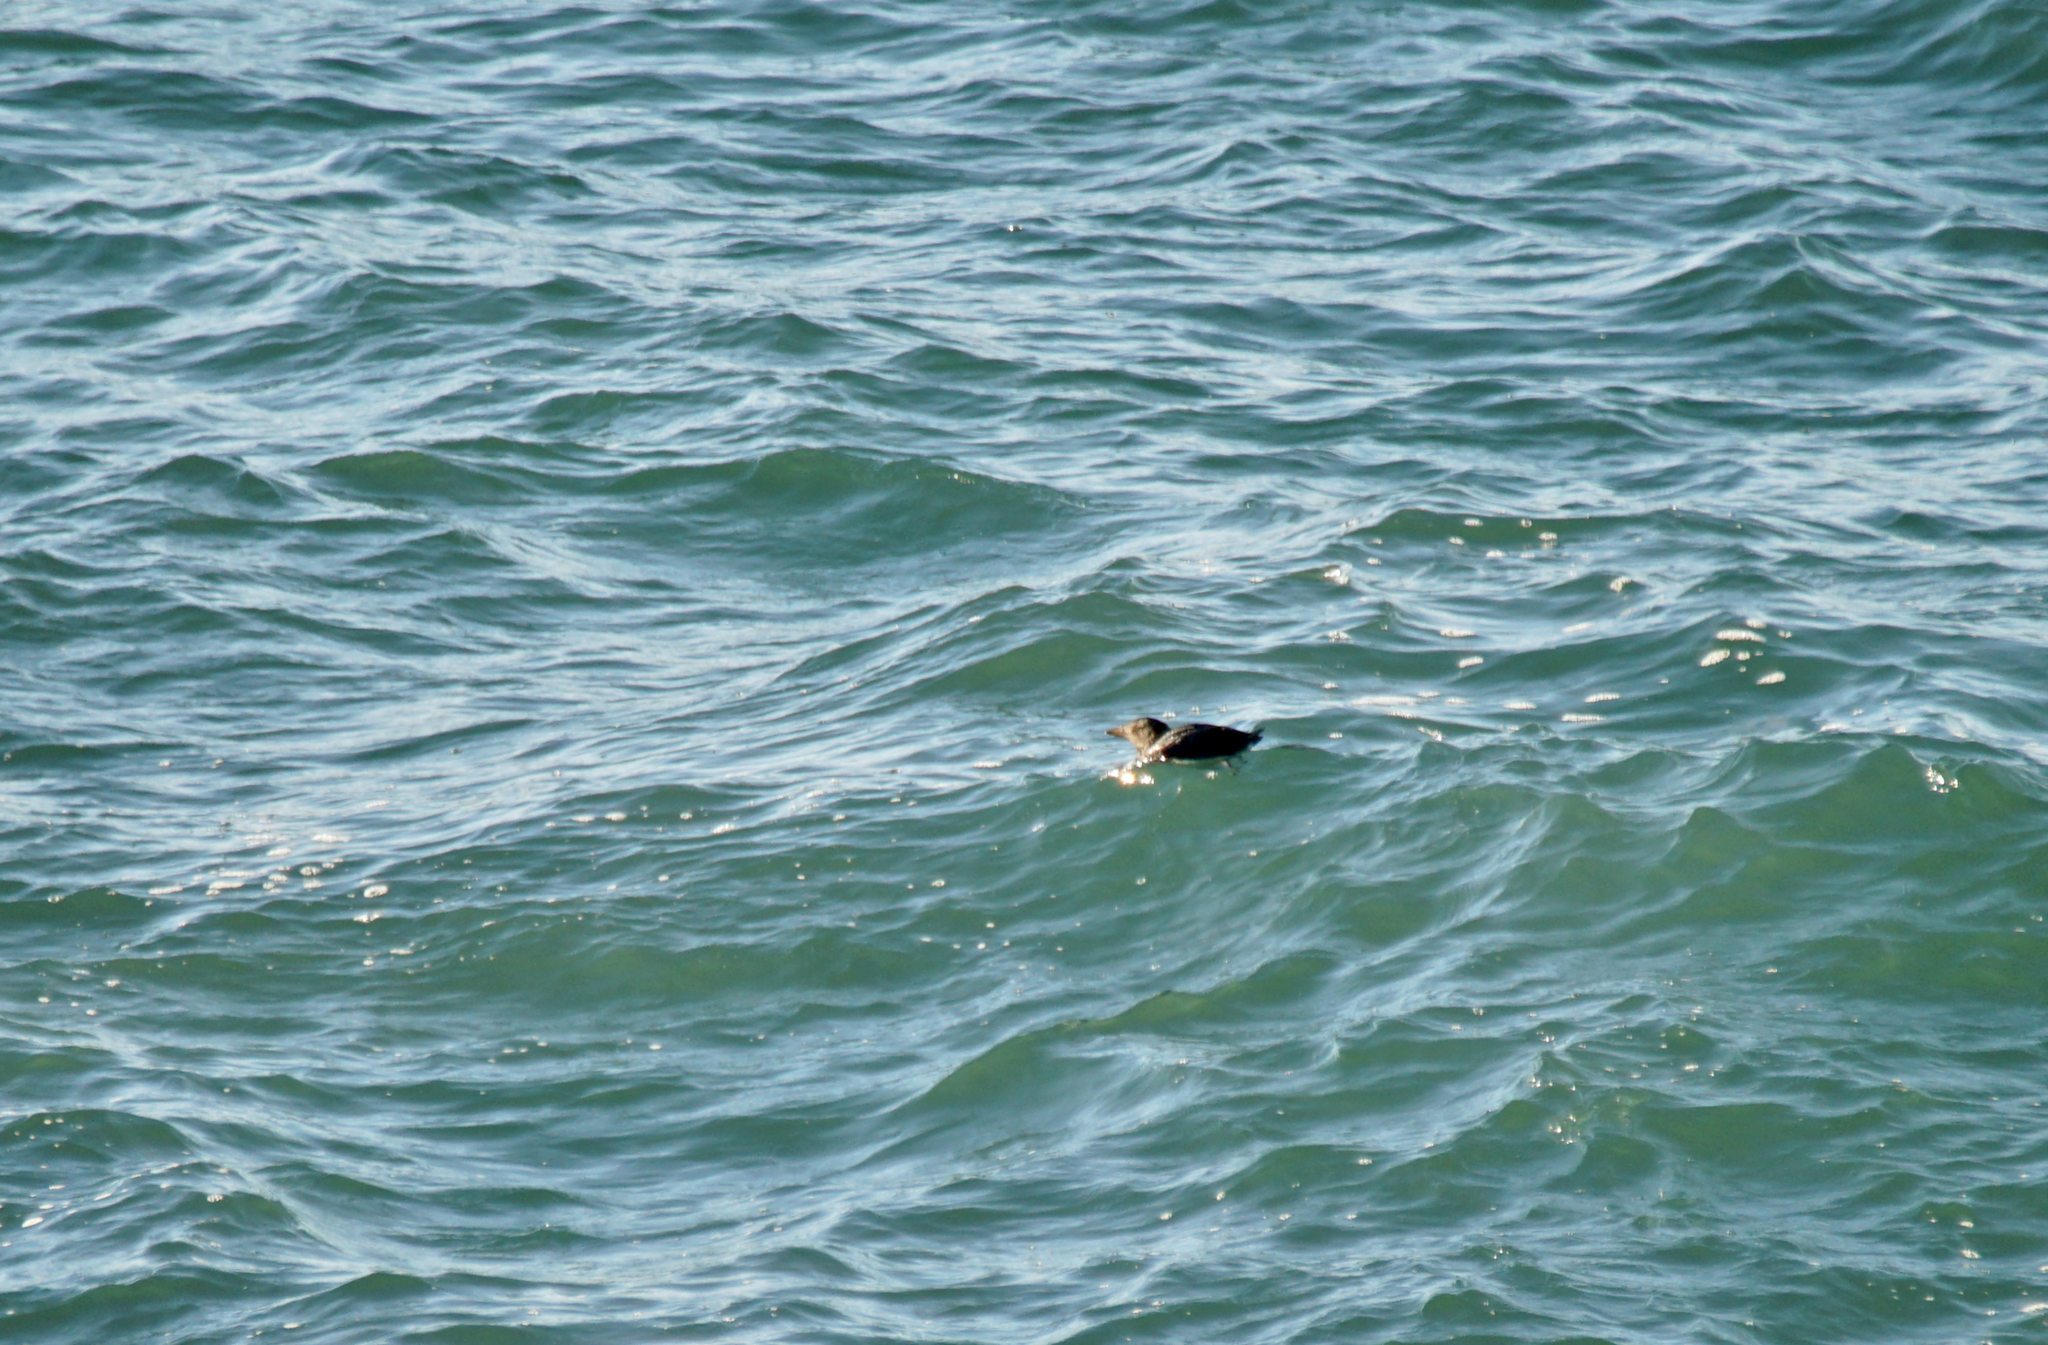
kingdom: Animalia
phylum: Chordata
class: Aves
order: Charadriiformes
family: Alcidae
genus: Cerorhinca
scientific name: Cerorhinca monocerata
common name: Rhinoceros auklet
